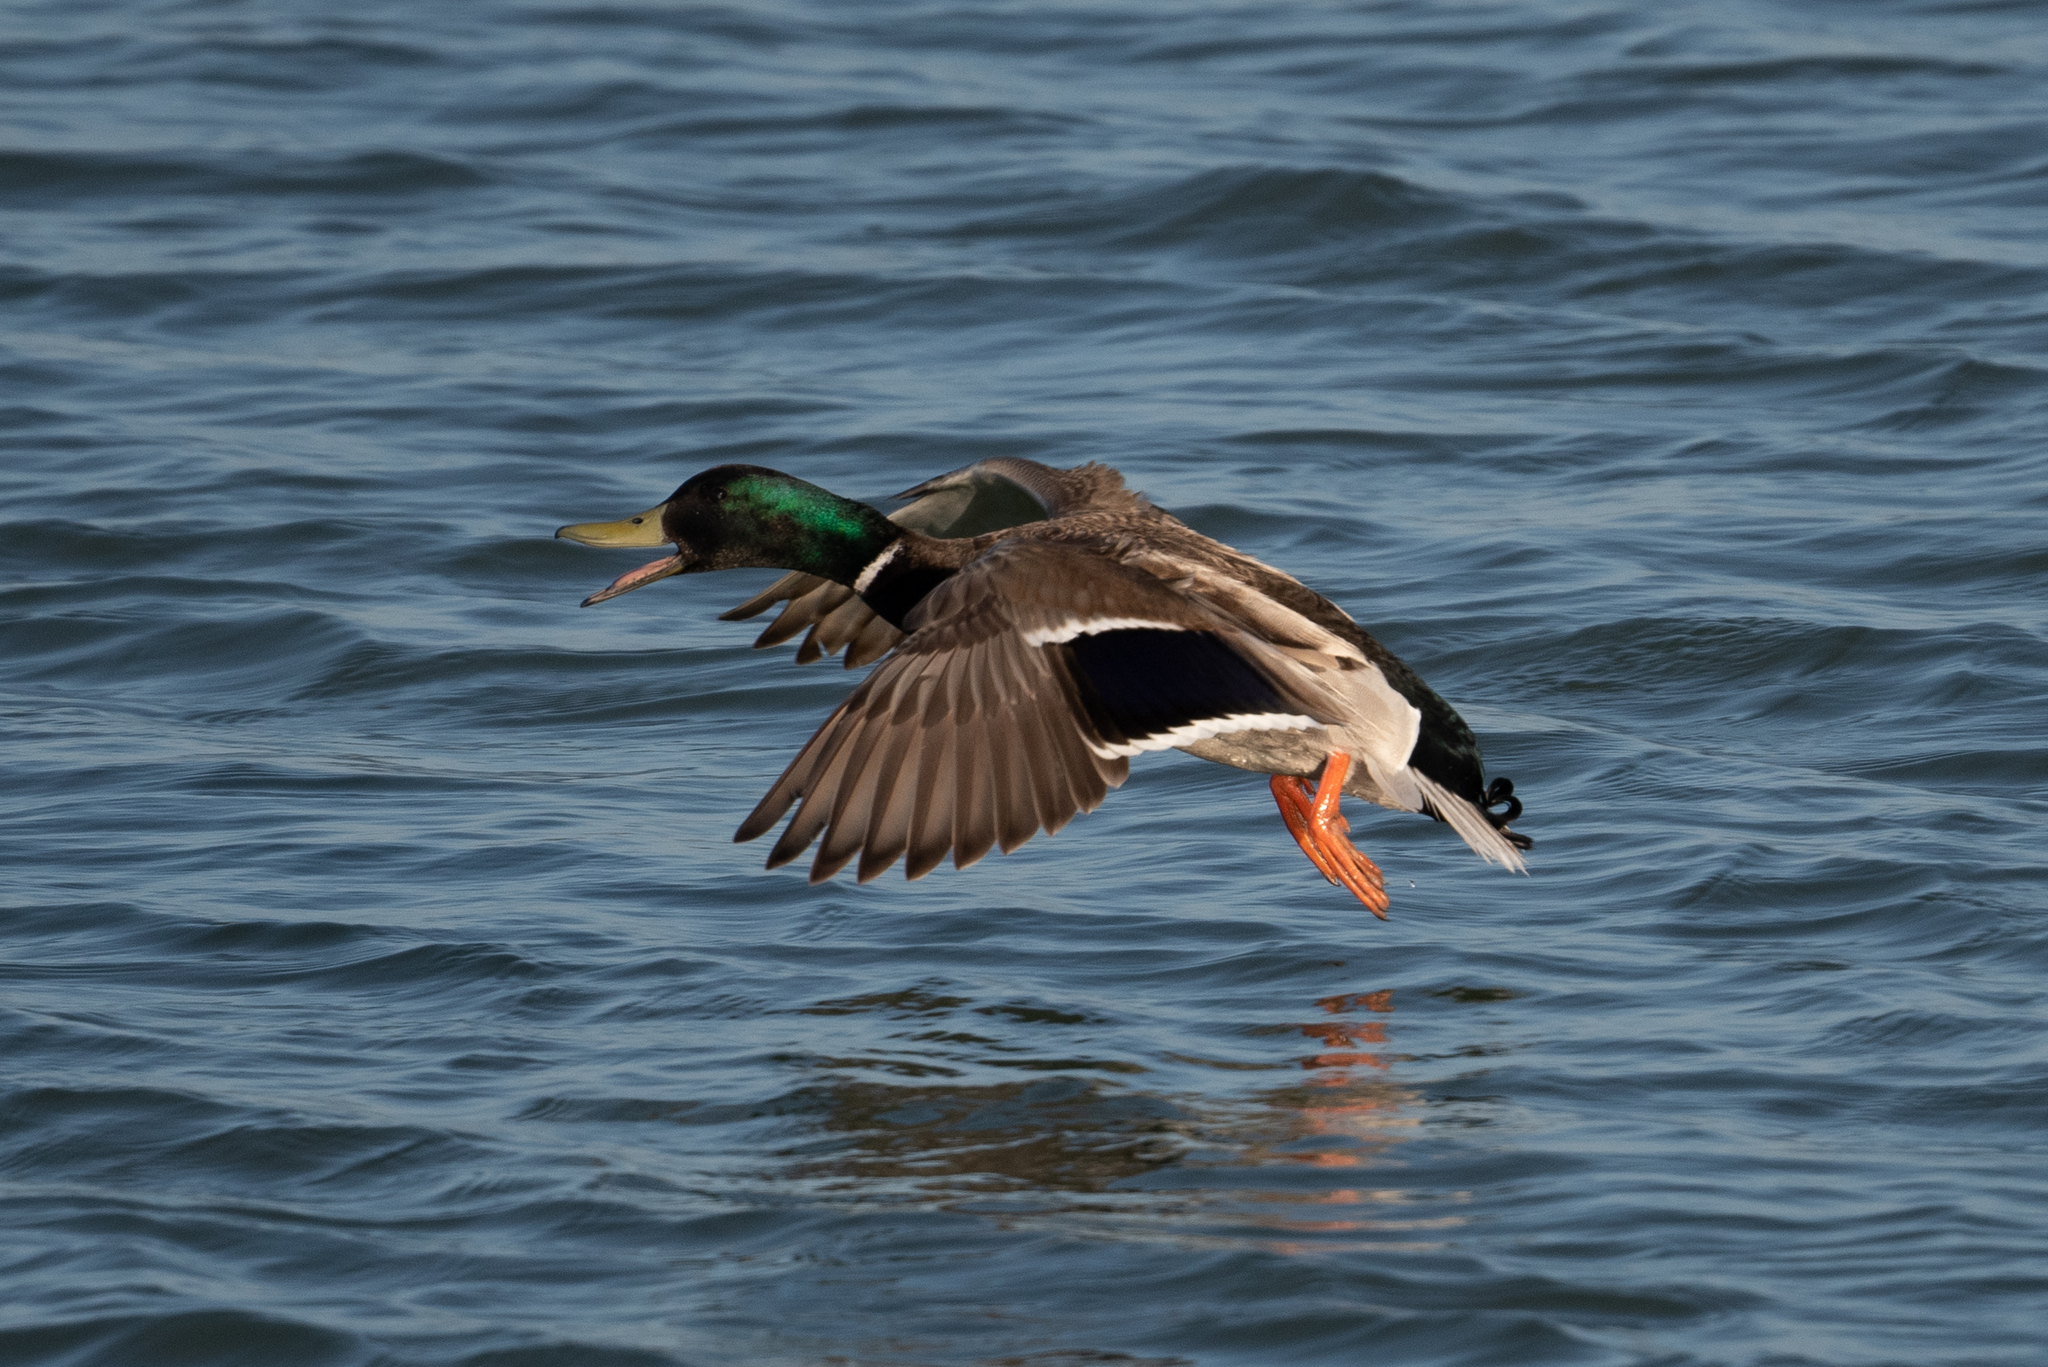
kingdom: Animalia
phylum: Chordata
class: Aves
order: Anseriformes
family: Anatidae
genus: Anas
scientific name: Anas platyrhynchos
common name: Mallard
